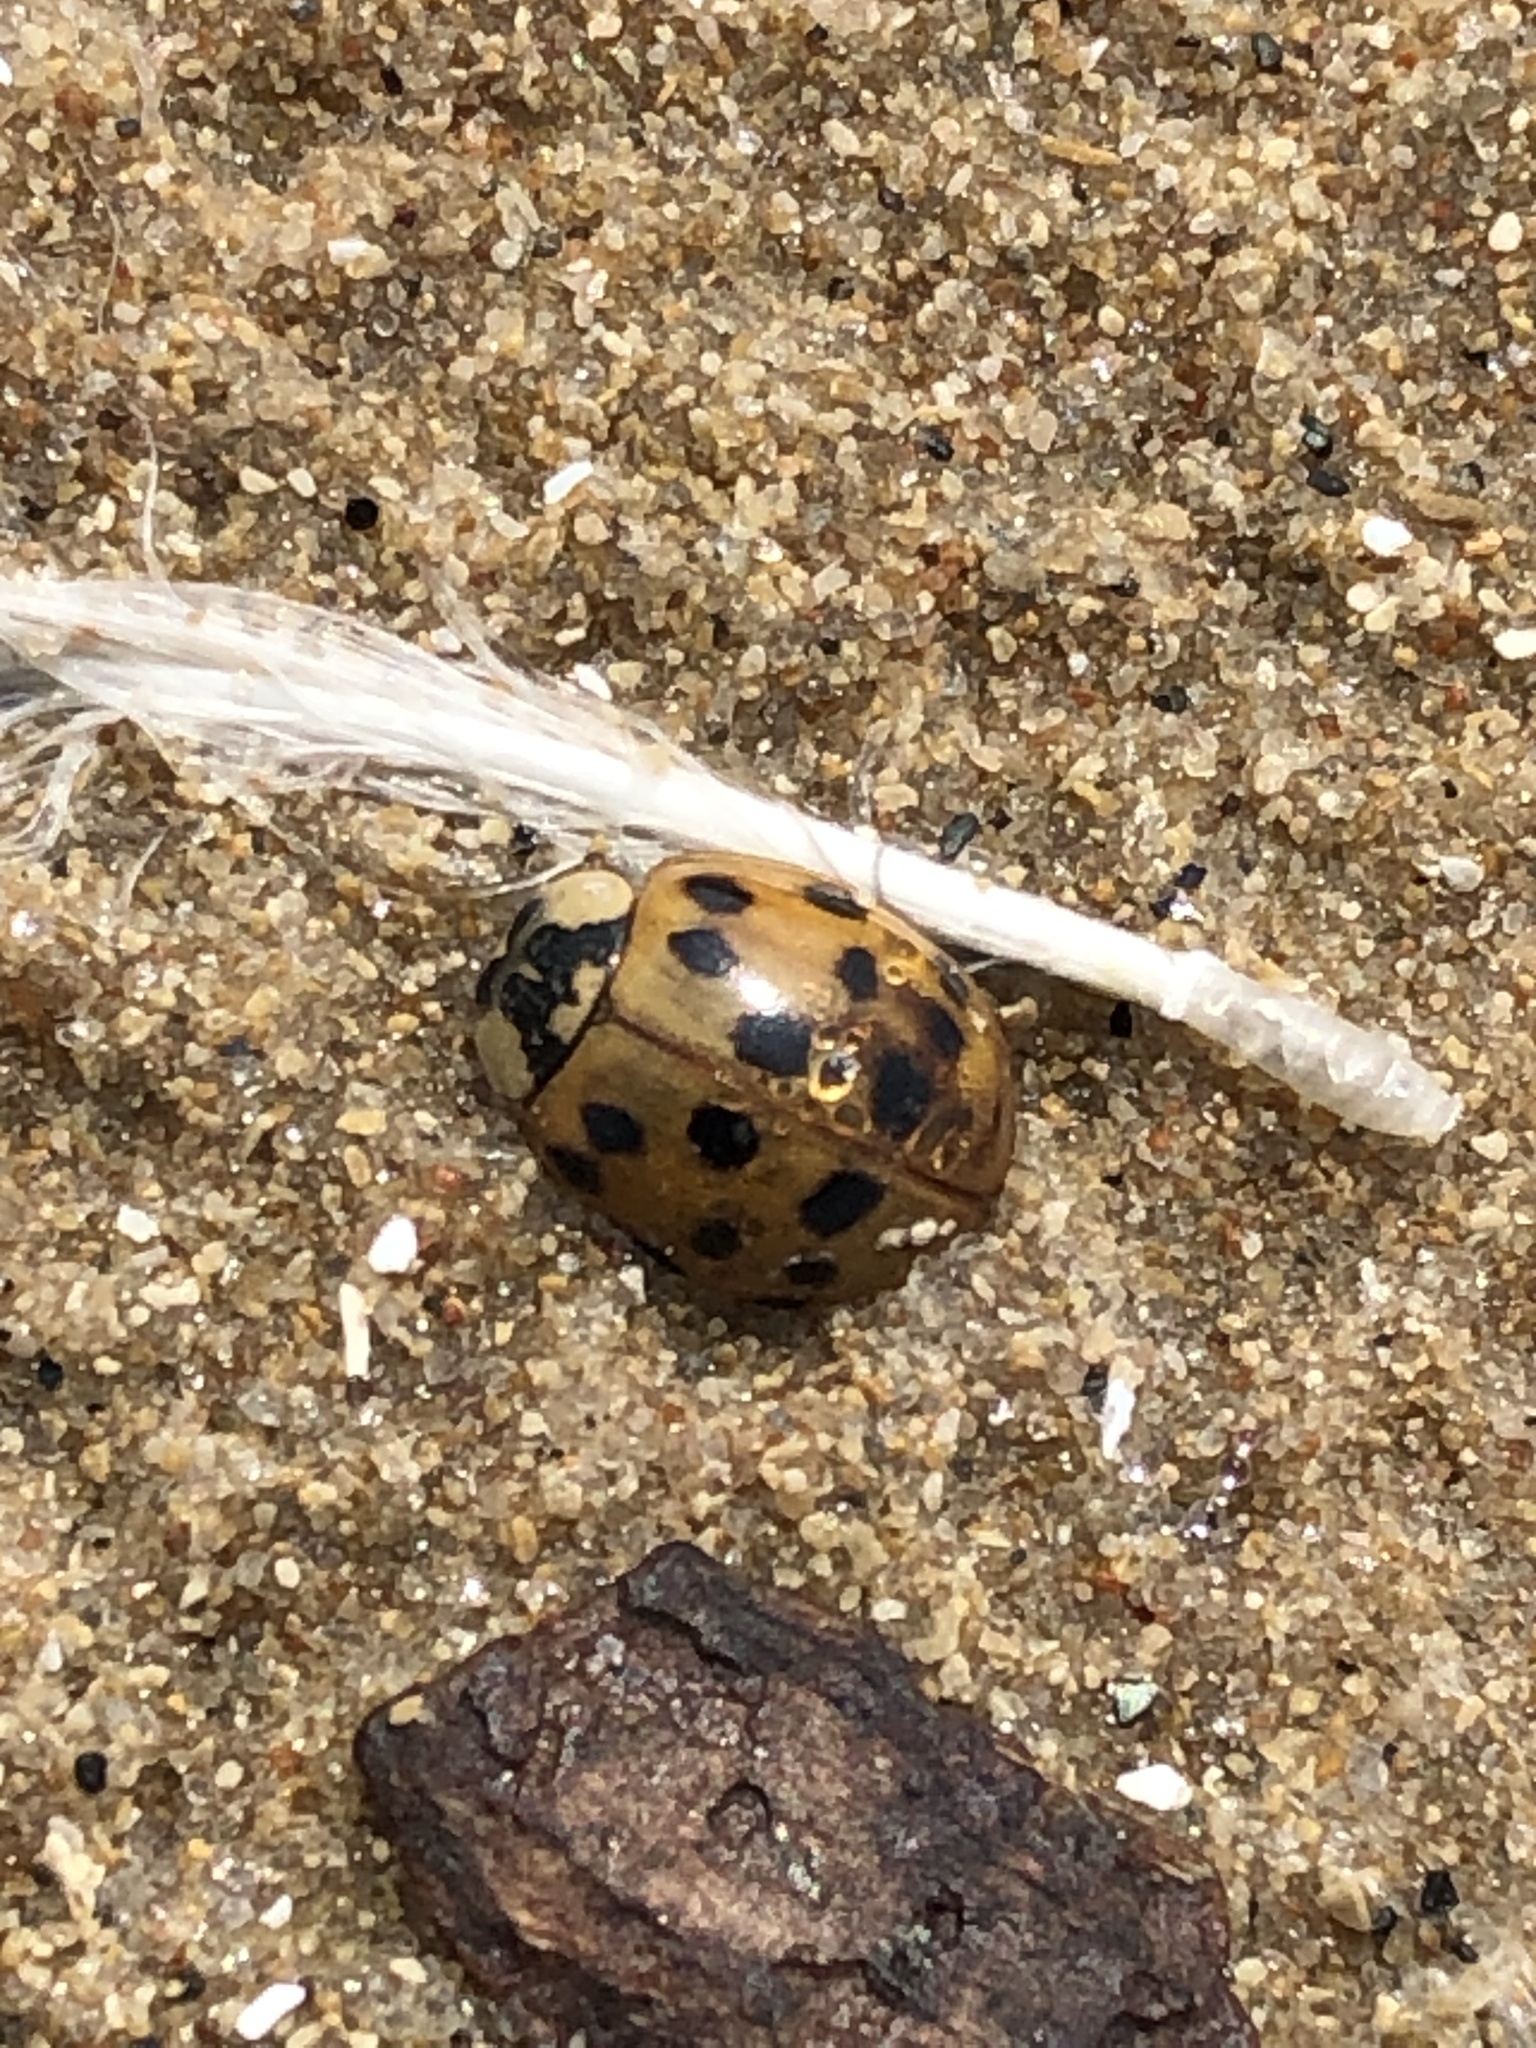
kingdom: Animalia
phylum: Arthropoda
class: Insecta
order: Coleoptera
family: Coccinellidae
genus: Harmonia
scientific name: Harmonia axyridis
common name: Harlequin ladybird
